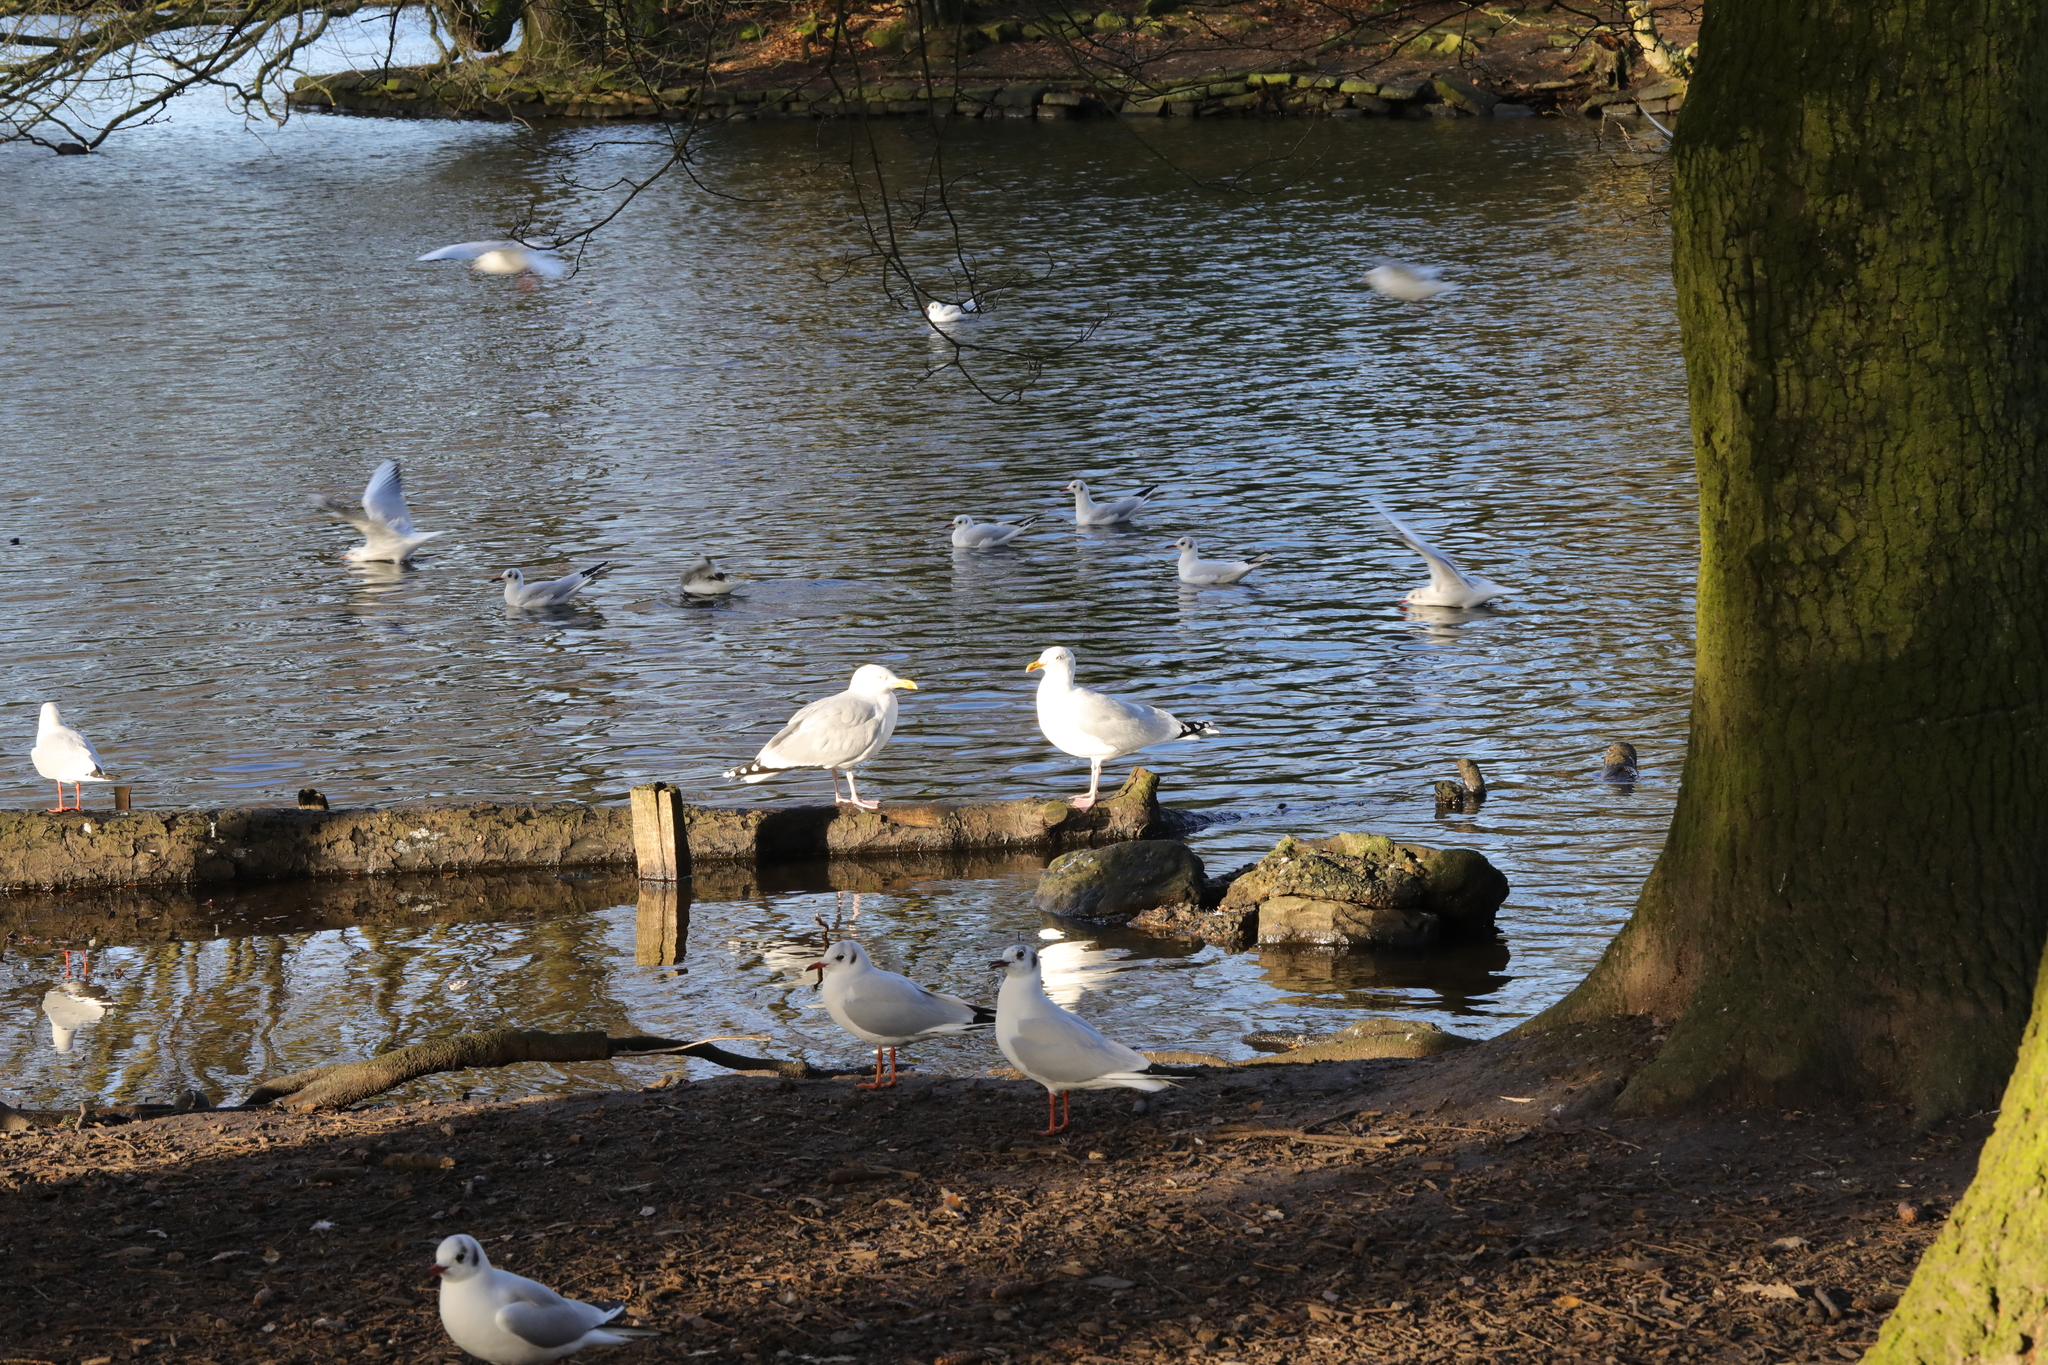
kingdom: Animalia
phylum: Chordata
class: Aves
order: Charadriiformes
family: Laridae
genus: Larus
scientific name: Larus argentatus
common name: Herring gull
